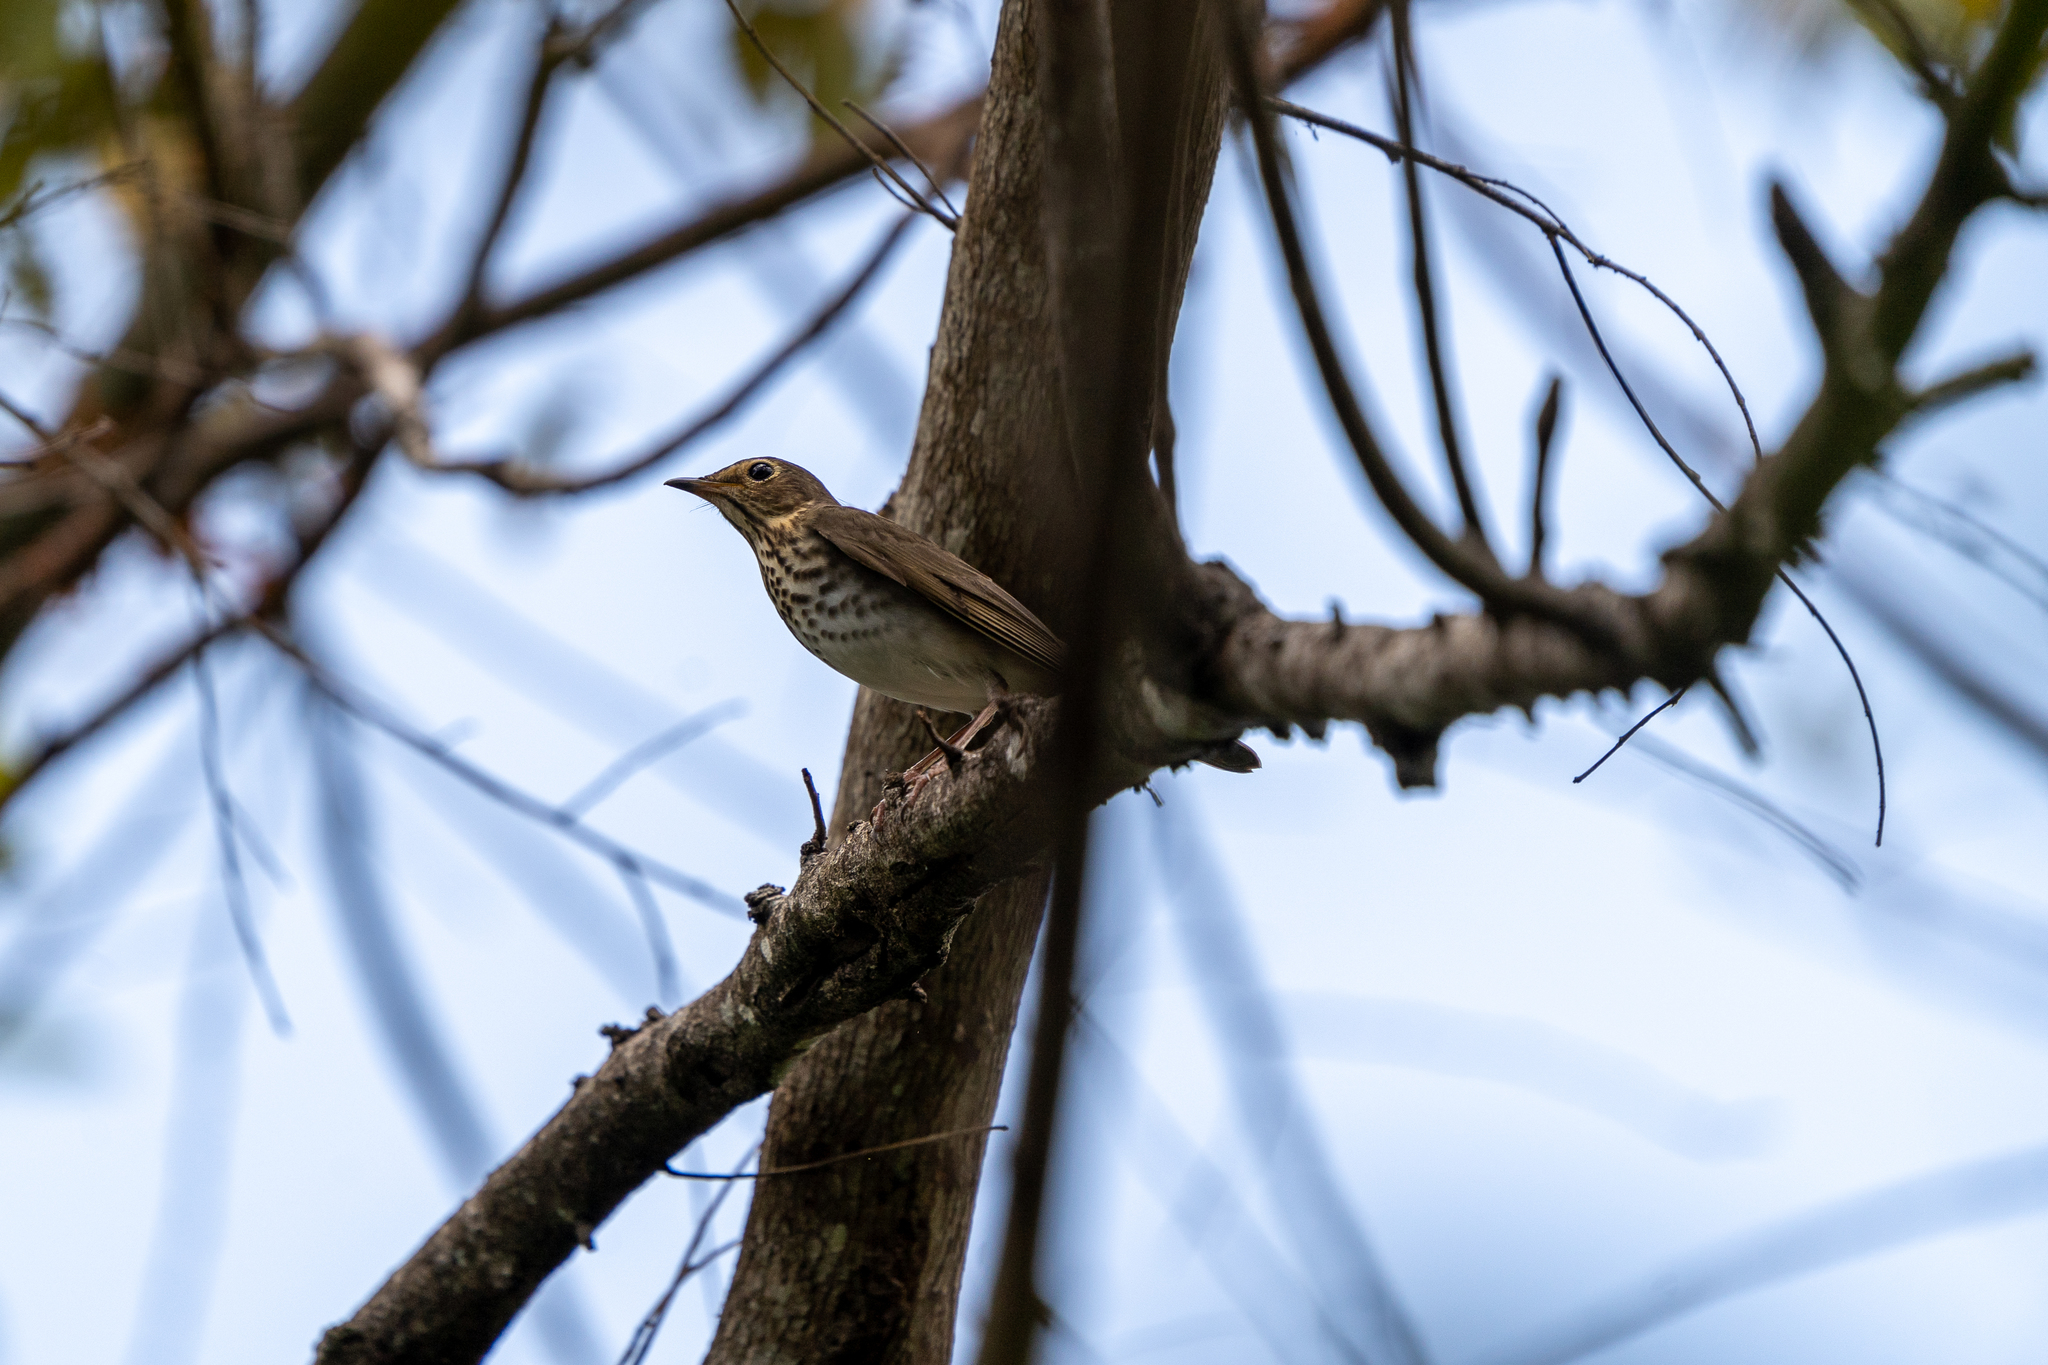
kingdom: Animalia
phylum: Chordata
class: Aves
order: Passeriformes
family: Turdidae
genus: Catharus
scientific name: Catharus ustulatus
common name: Swainson's thrush
